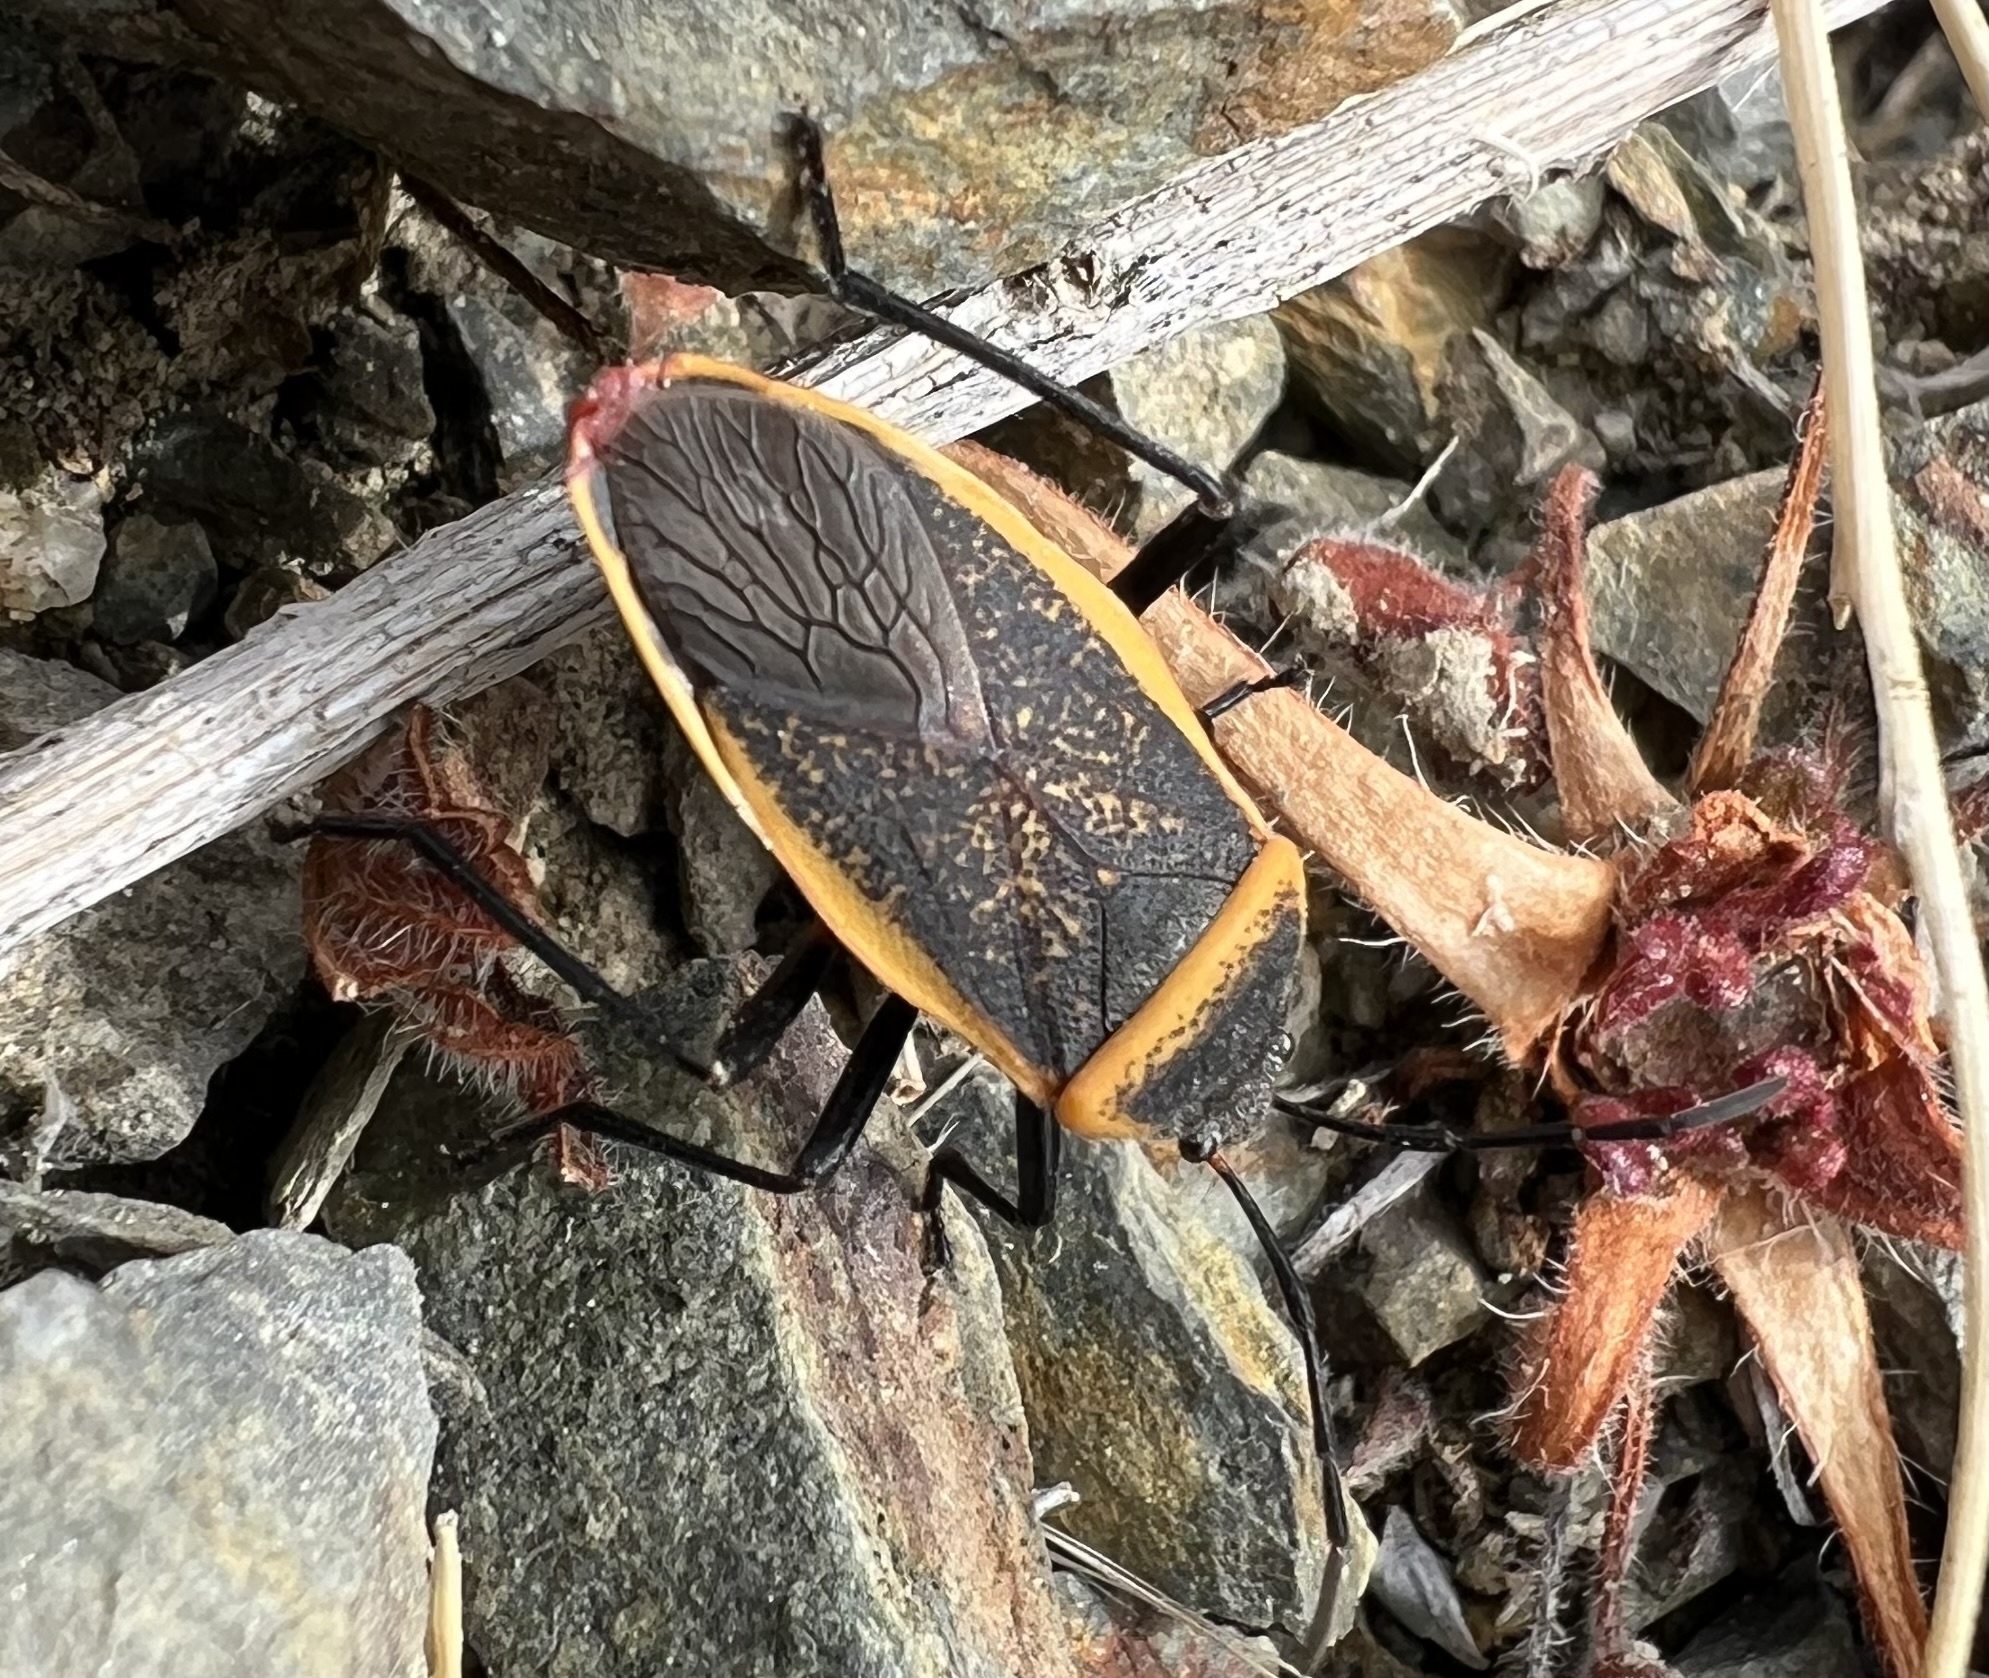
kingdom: Animalia
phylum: Arthropoda
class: Insecta
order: Hemiptera
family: Largidae
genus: Largus
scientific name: Largus californicus
